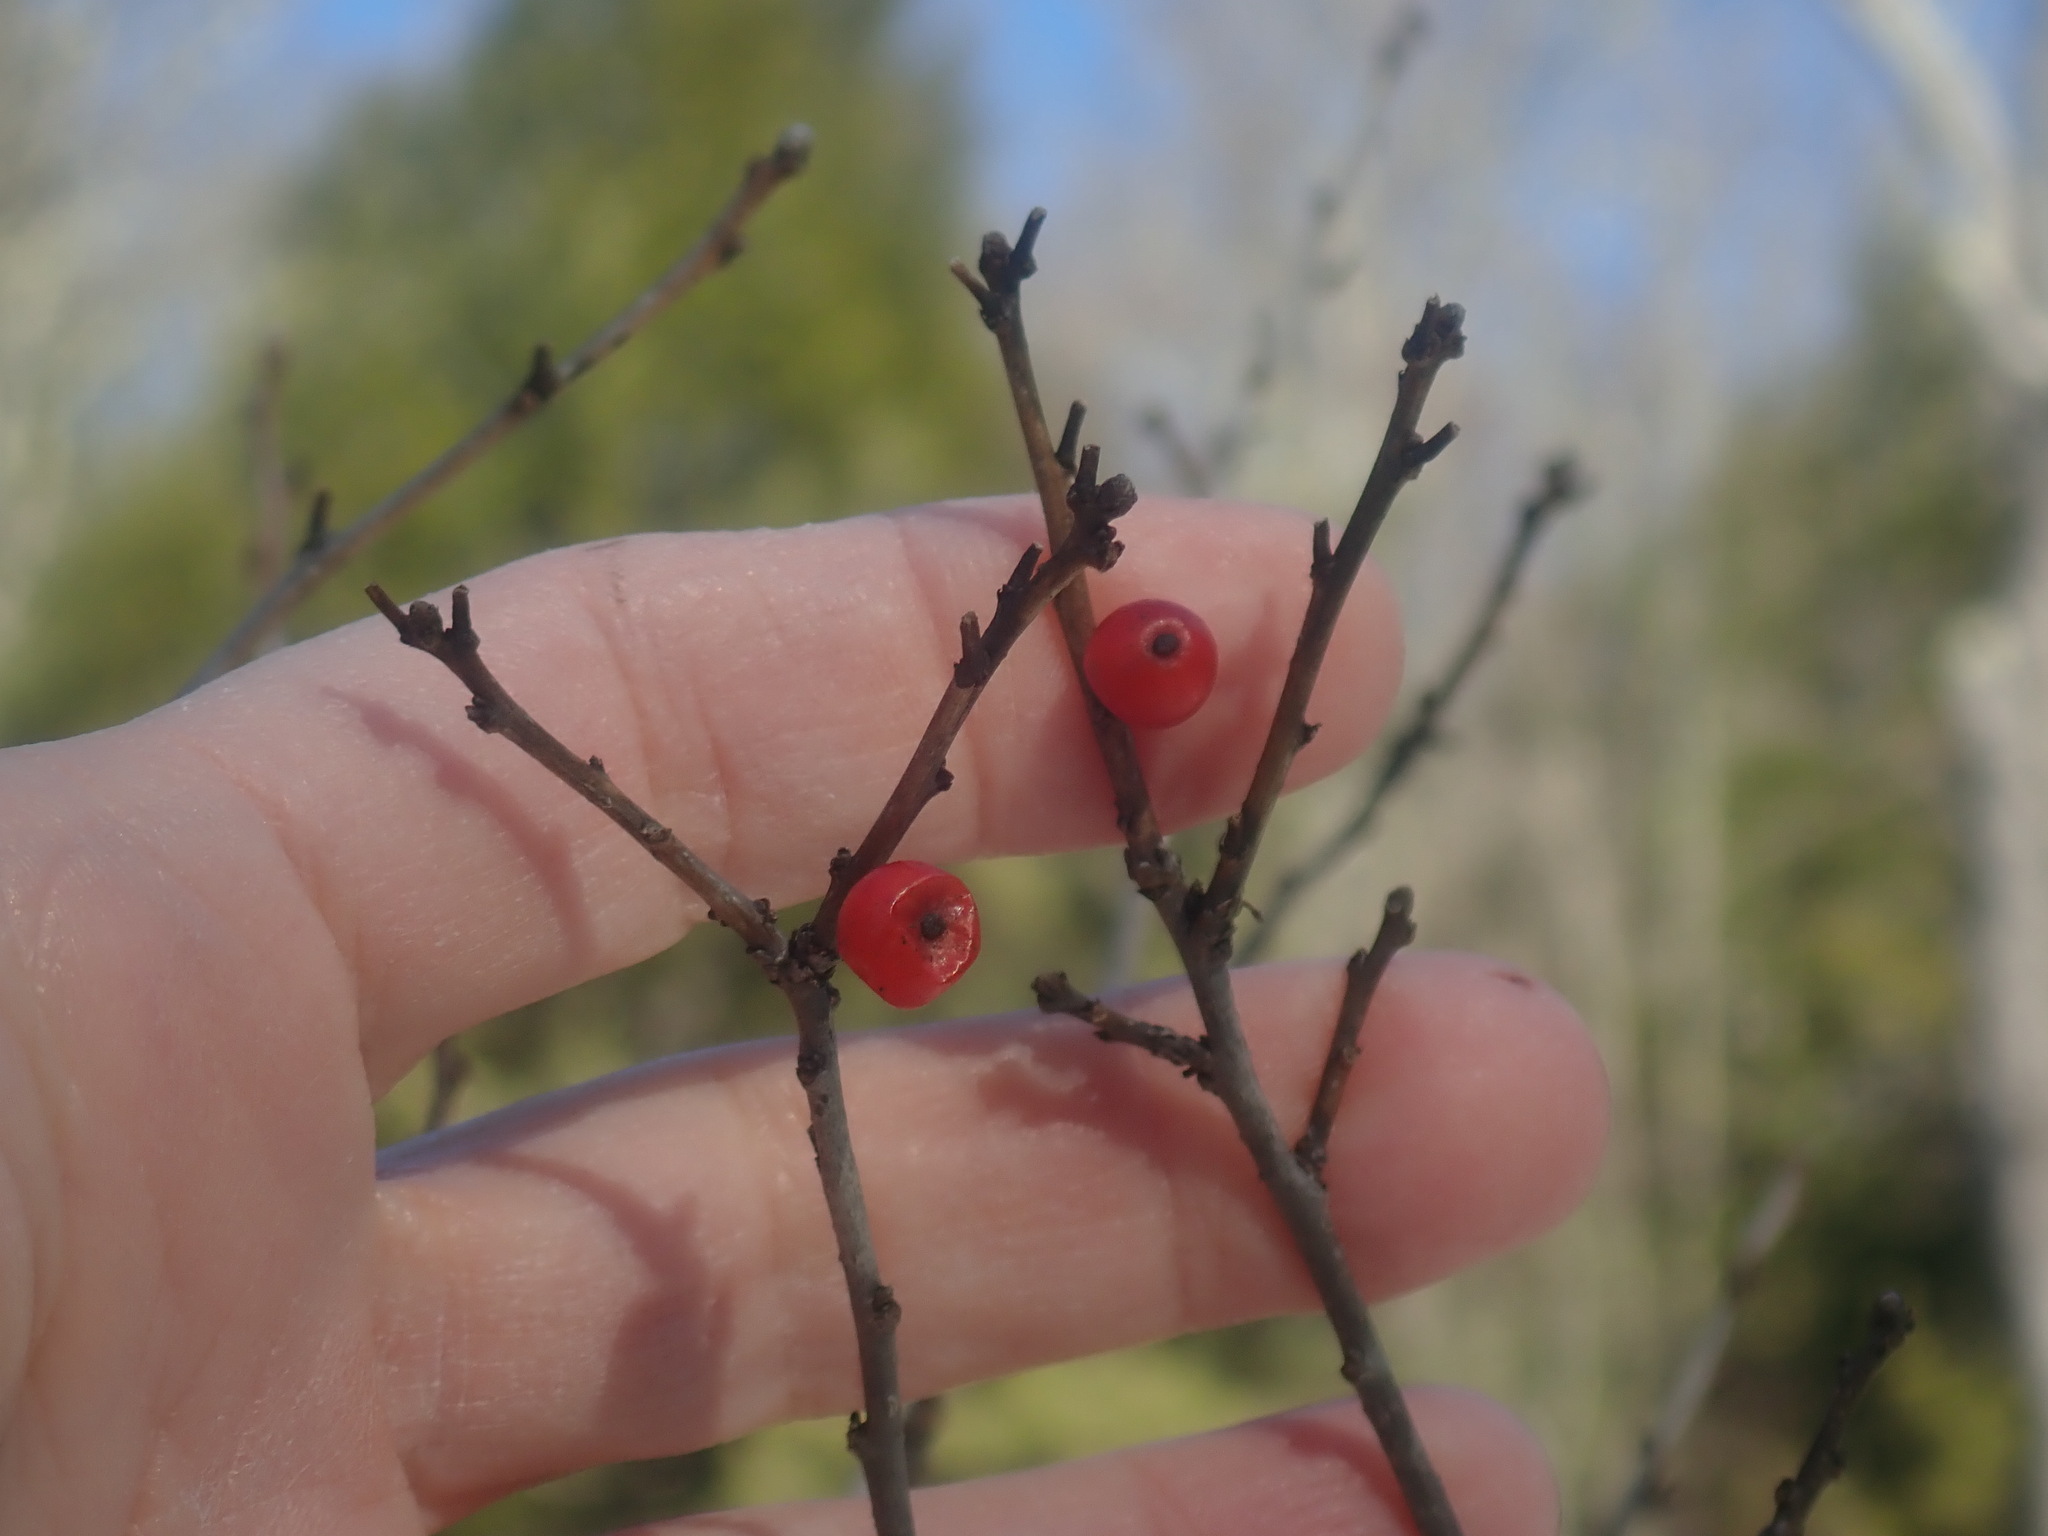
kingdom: Plantae
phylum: Tracheophyta
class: Magnoliopsida
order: Aquifoliales
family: Aquifoliaceae
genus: Ilex
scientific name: Ilex verticillata
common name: Virginia winterberry
